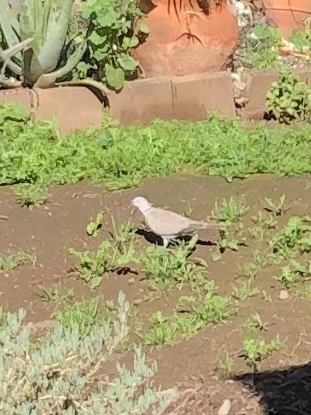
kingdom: Animalia
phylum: Chordata
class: Aves
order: Columbiformes
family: Columbidae
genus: Streptopelia
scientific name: Streptopelia decaocto
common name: Eurasian collared dove
